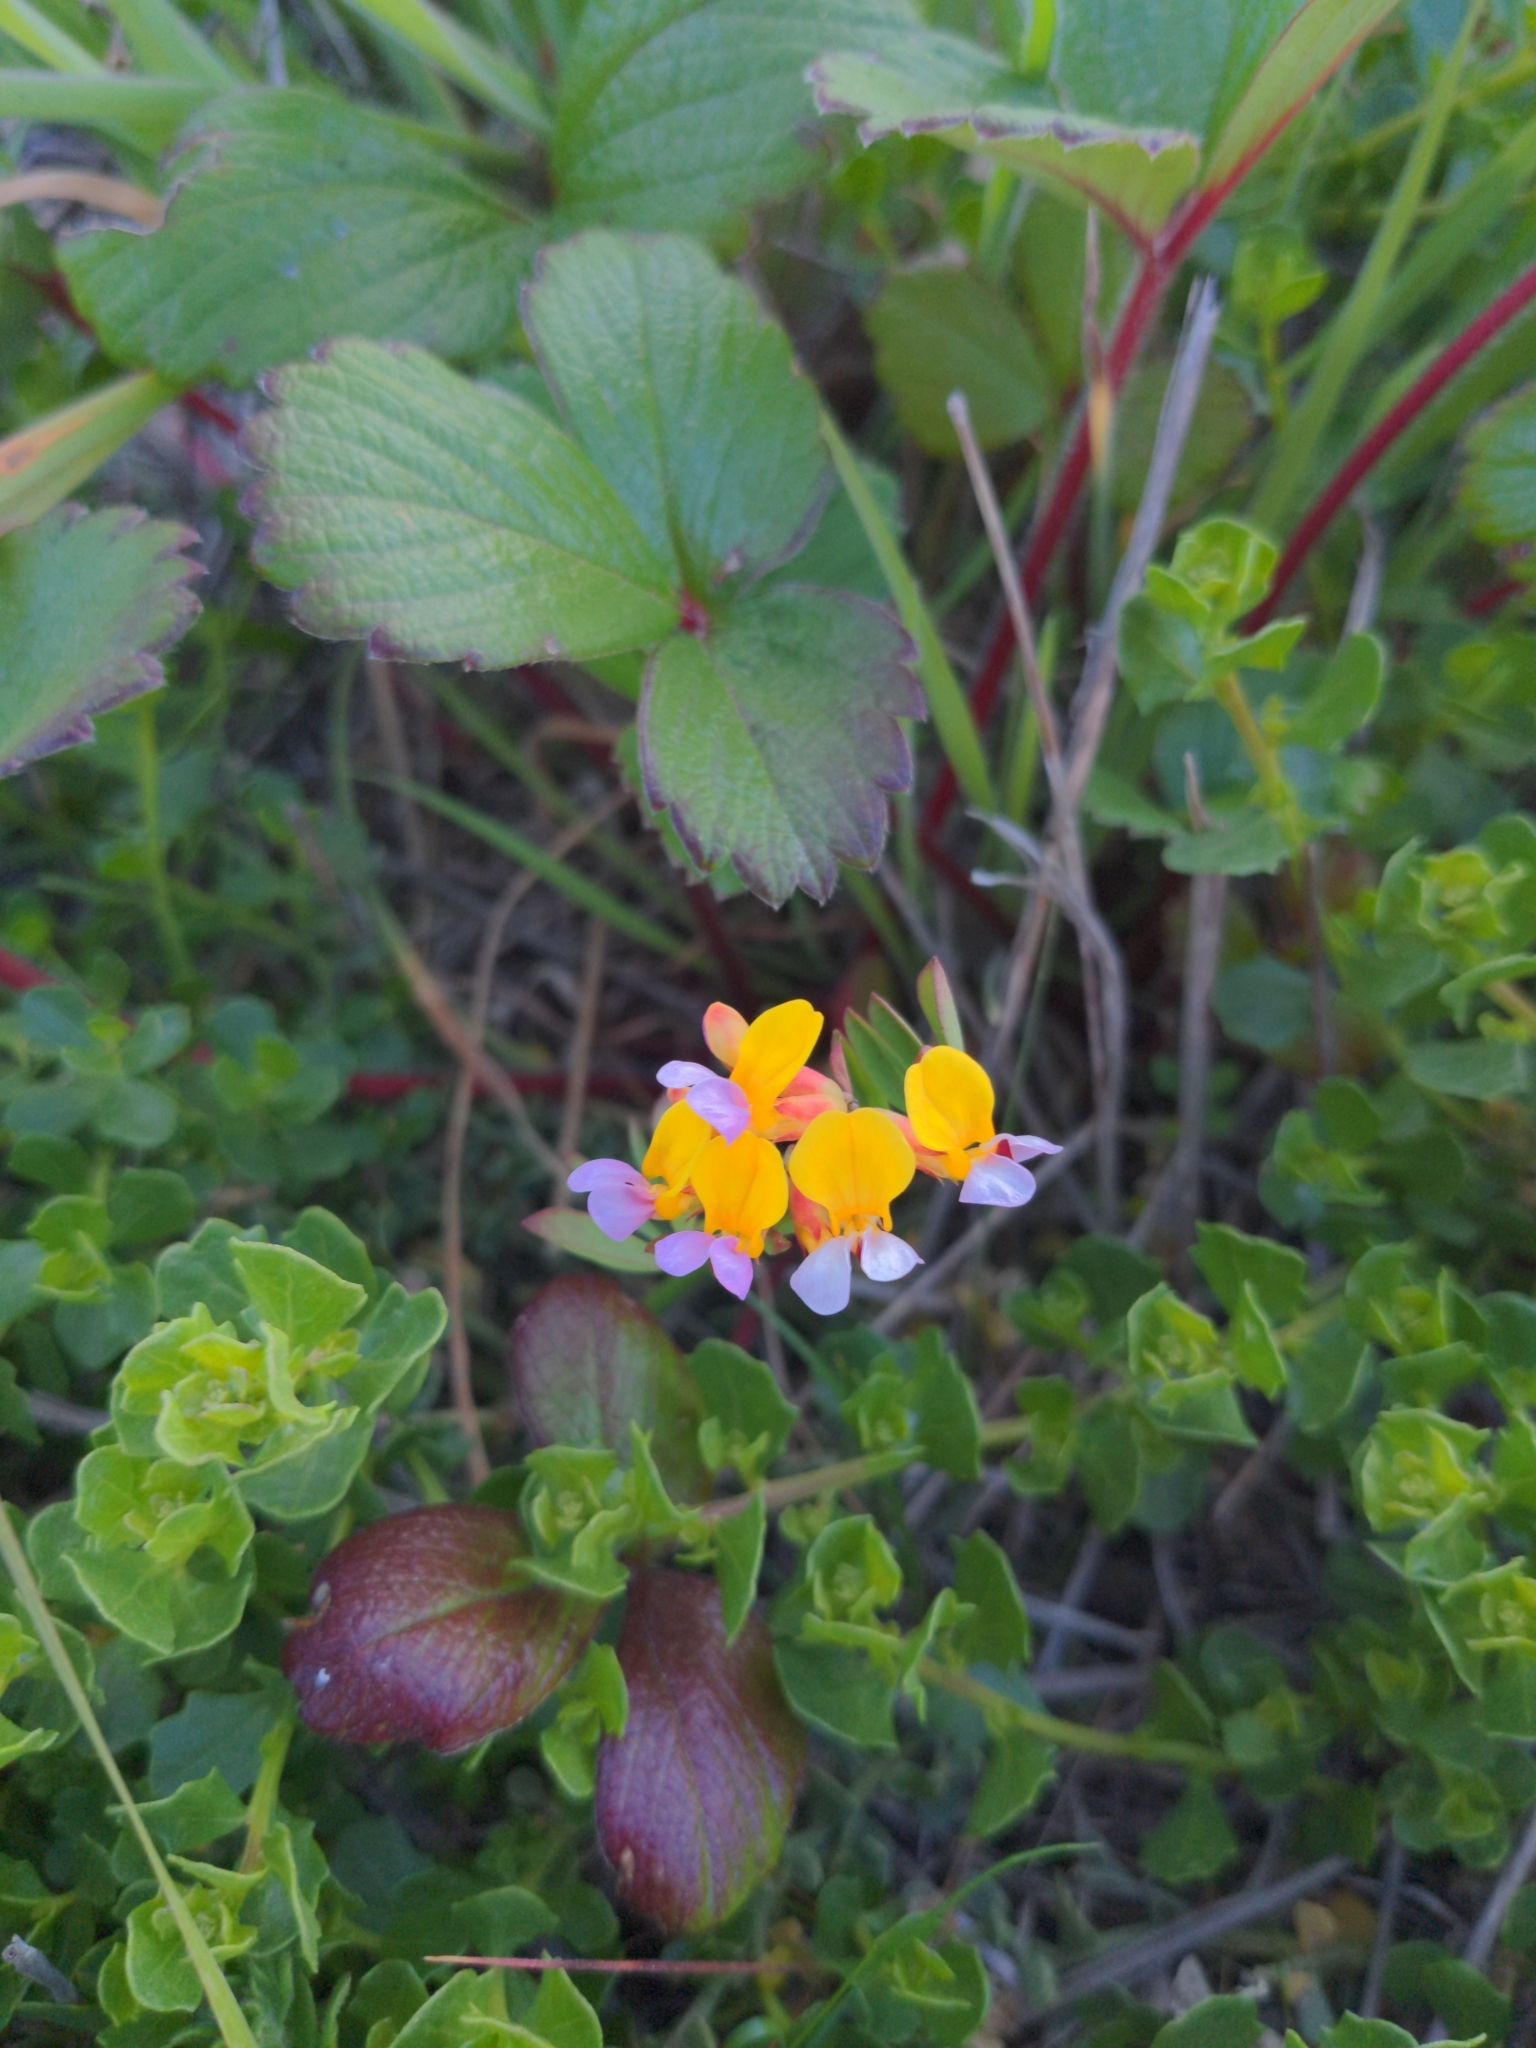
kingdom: Plantae
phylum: Tracheophyta
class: Magnoliopsida
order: Fabales
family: Fabaceae
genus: Hosackia
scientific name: Hosackia gracilis
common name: Seaside bird's-foot lotus
